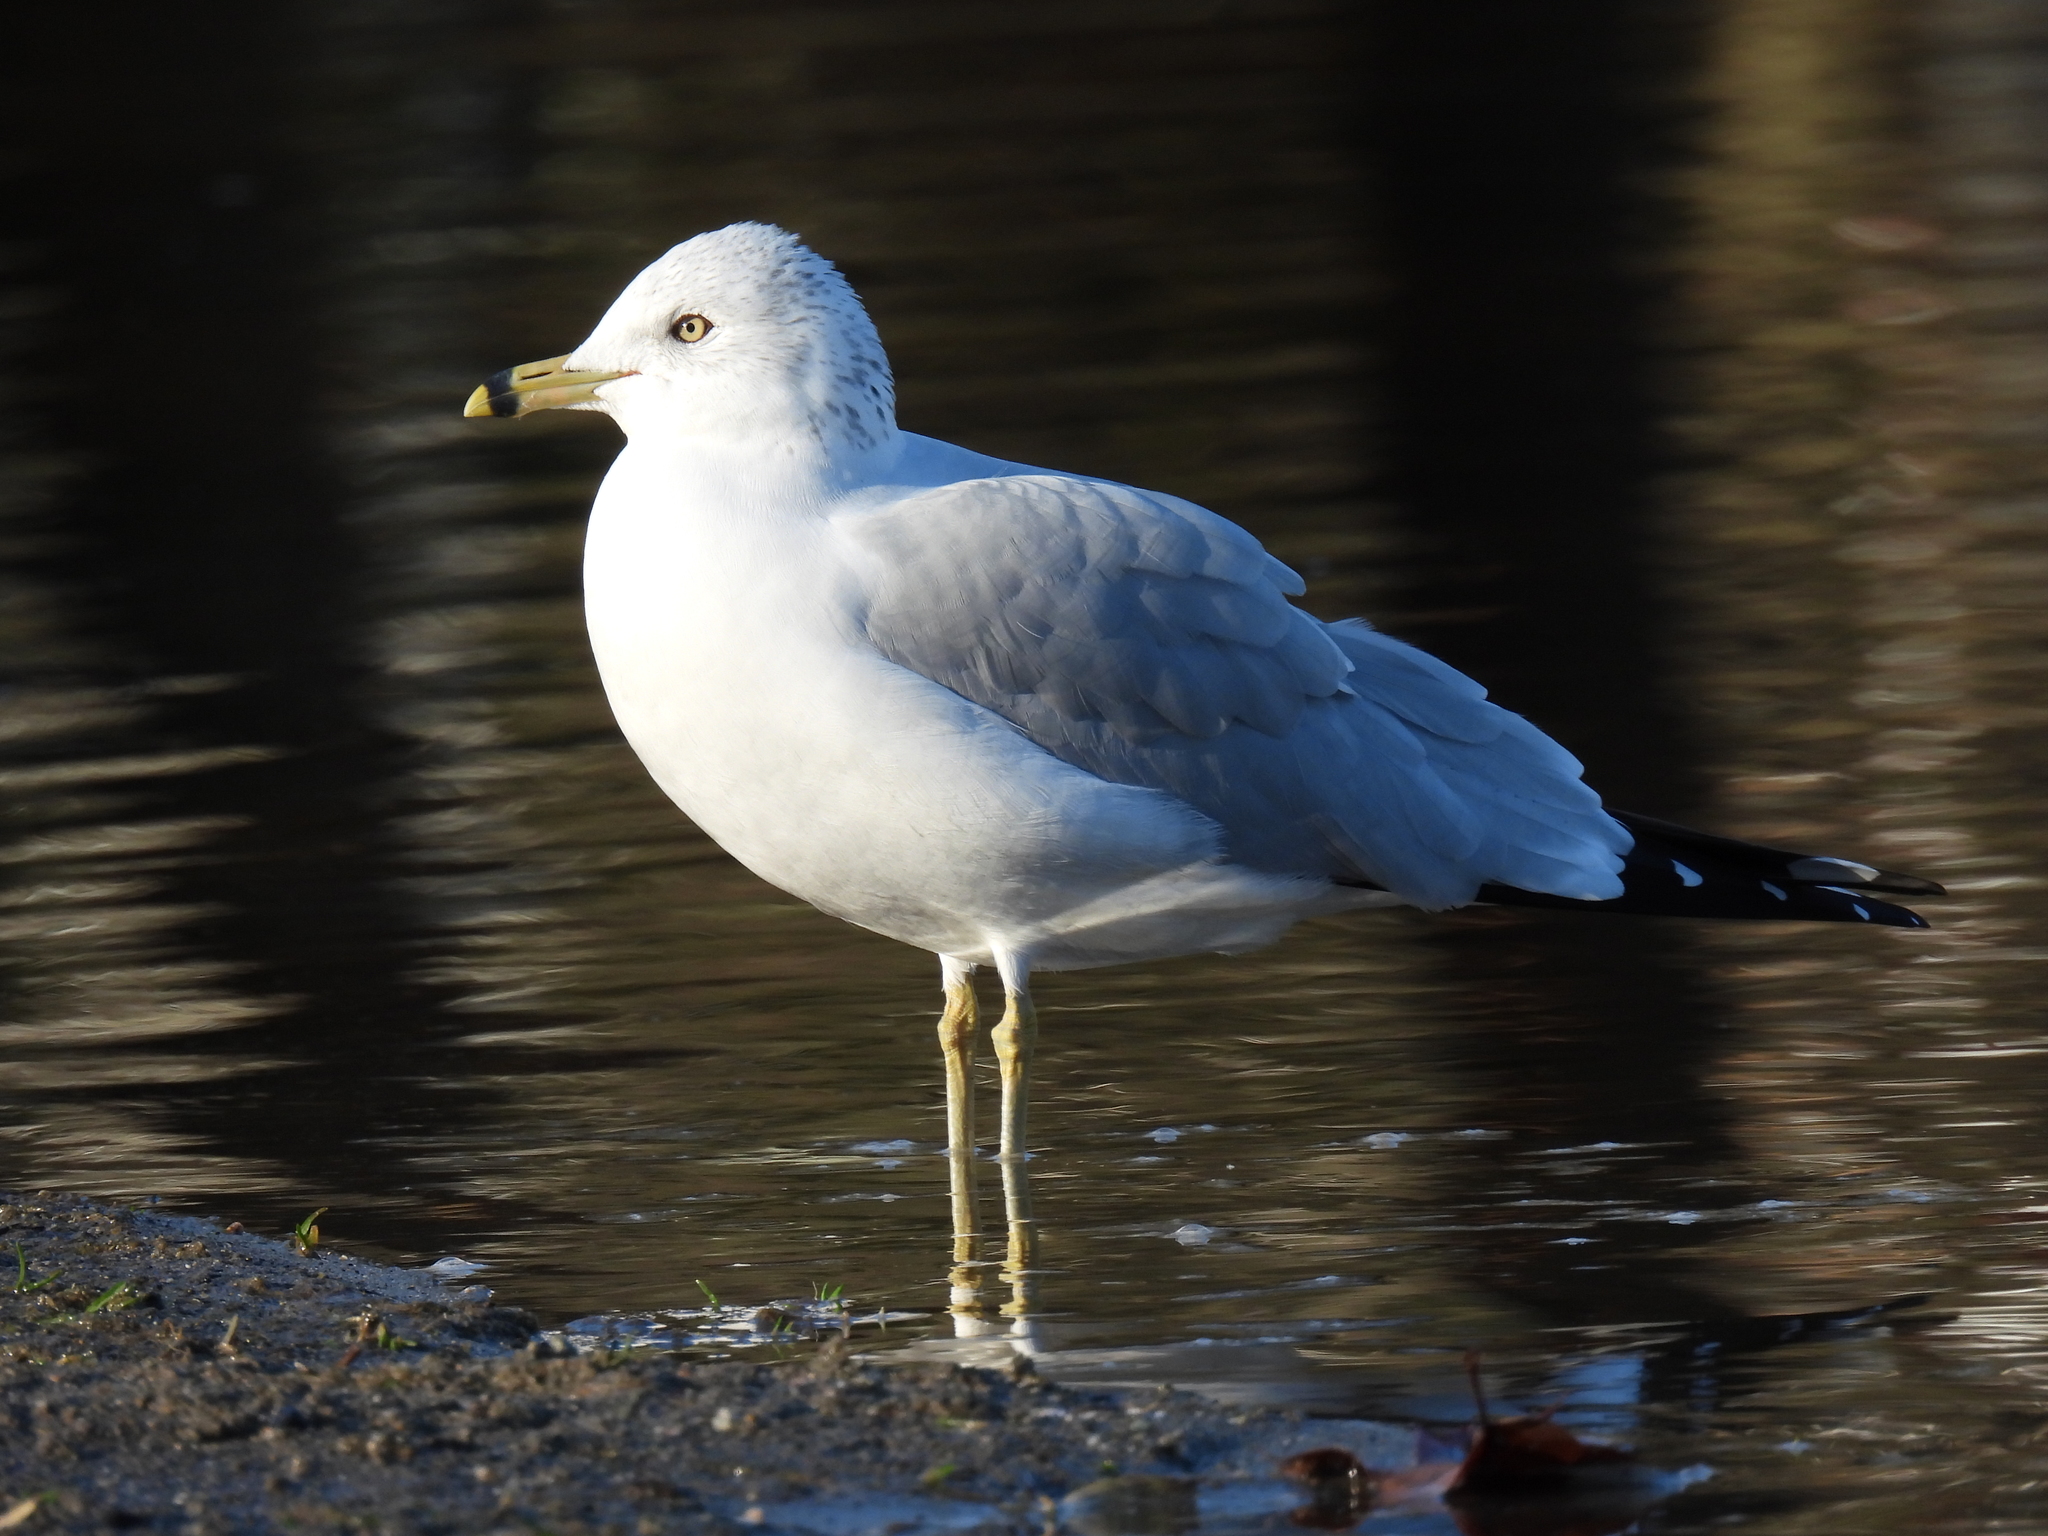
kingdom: Animalia
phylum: Chordata
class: Aves
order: Charadriiformes
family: Laridae
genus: Larus
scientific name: Larus delawarensis
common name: Ring-billed gull
